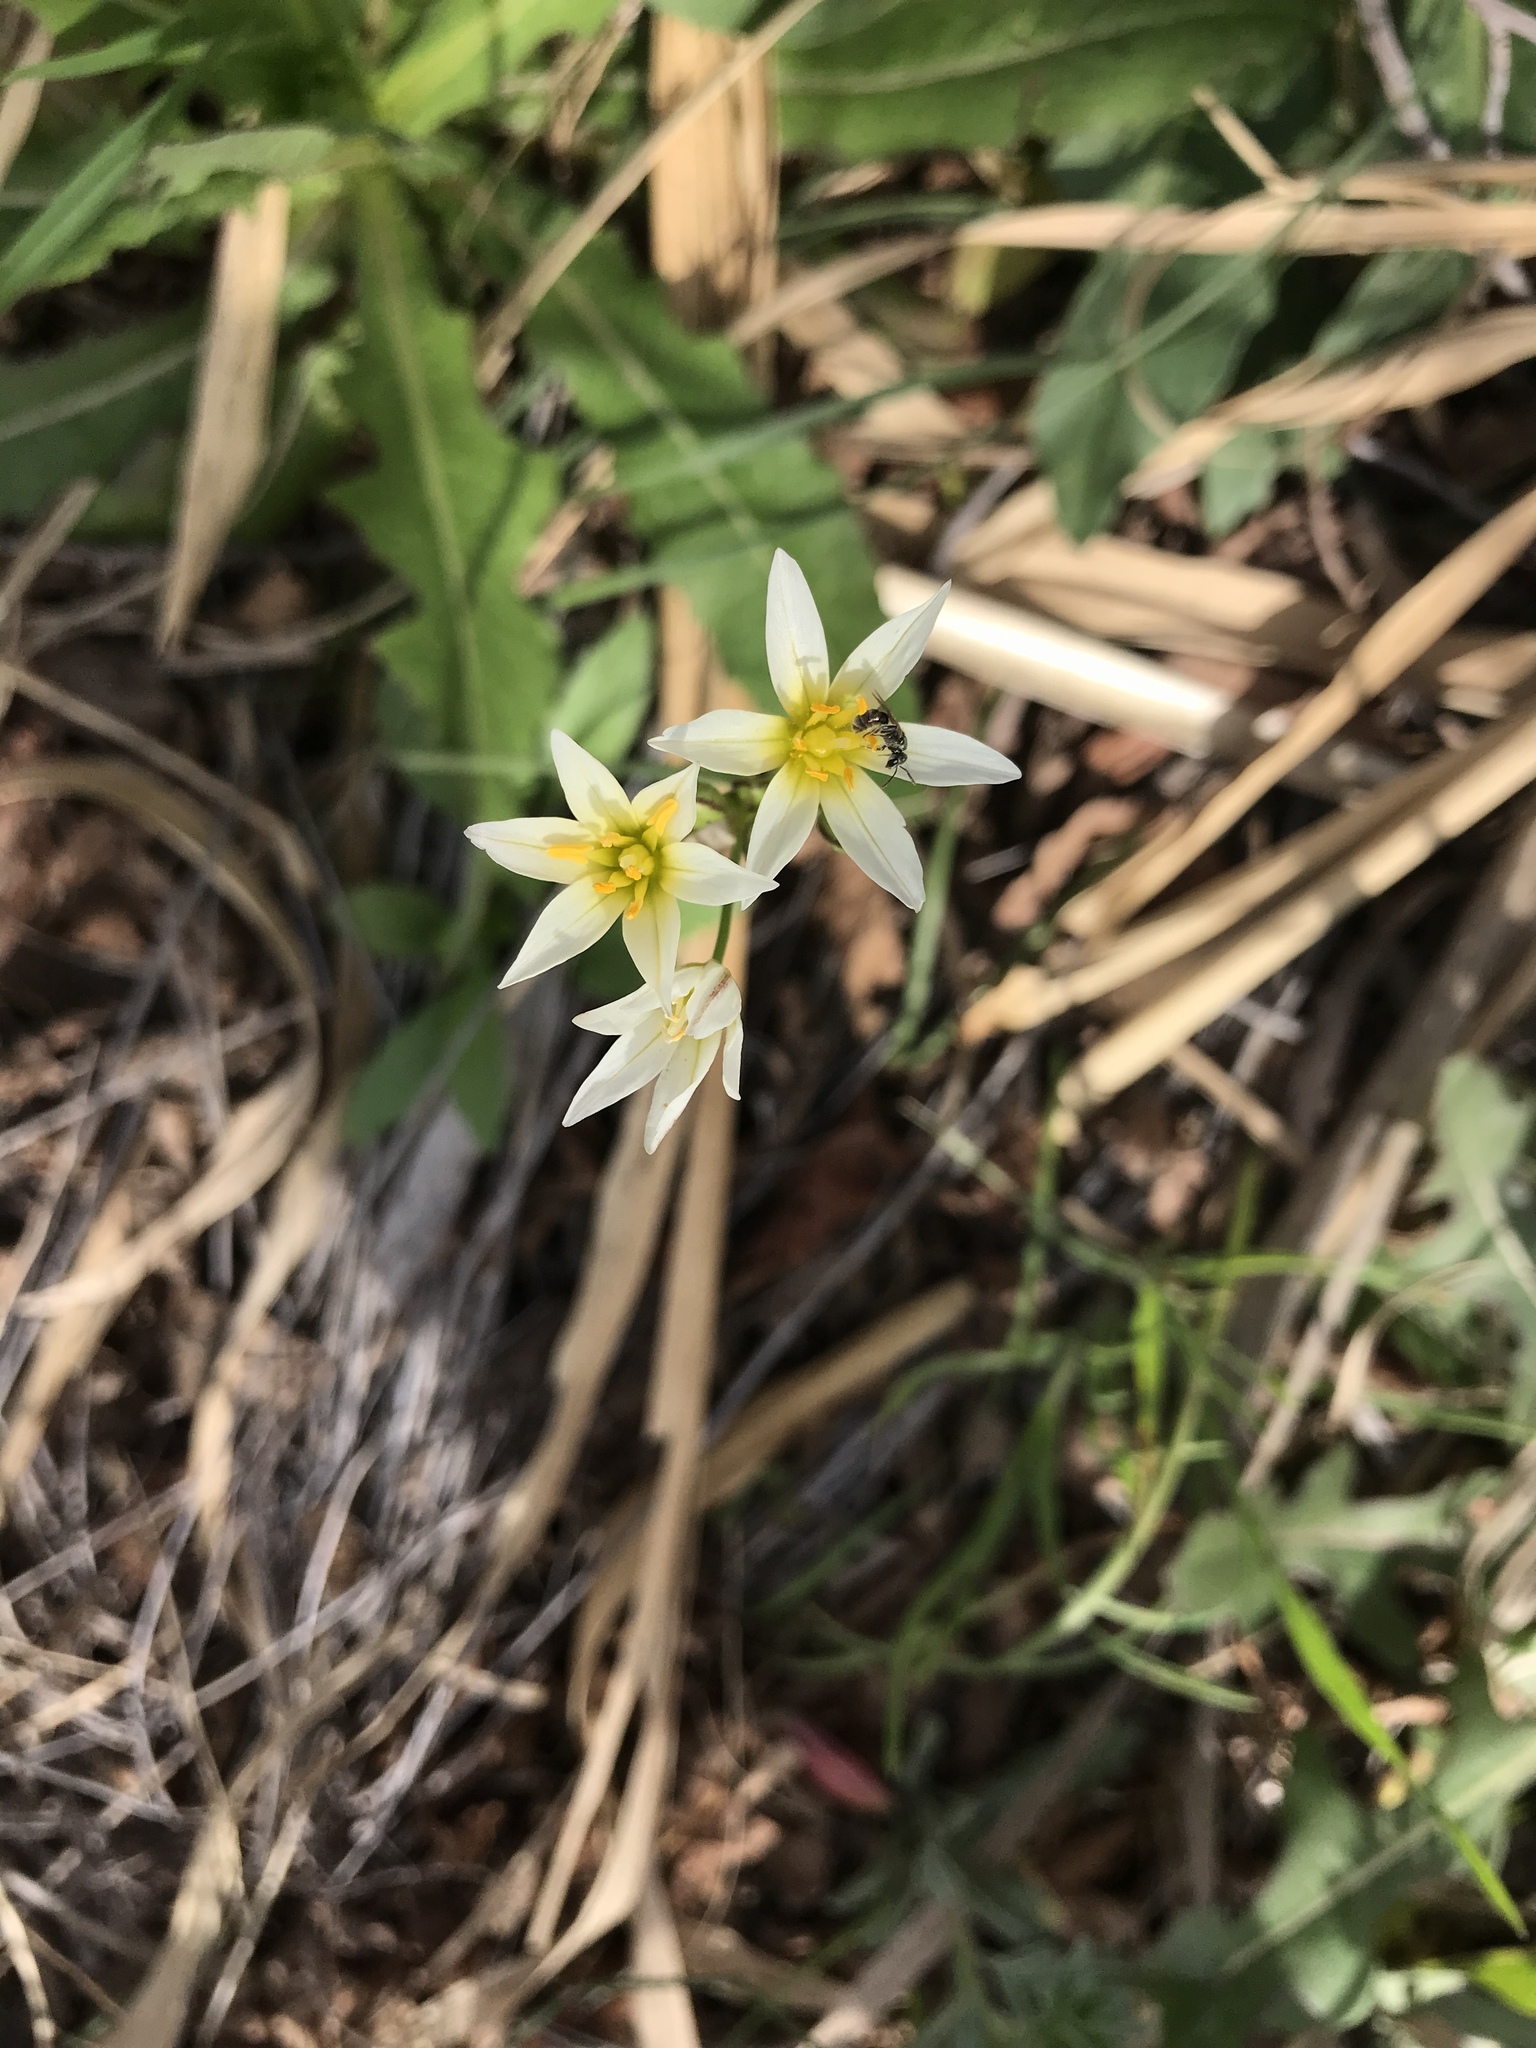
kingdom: Plantae
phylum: Tracheophyta
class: Liliopsida
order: Asparagales
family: Amaryllidaceae
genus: Nothoscordum
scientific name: Nothoscordum bivalve
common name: Crow-poison
